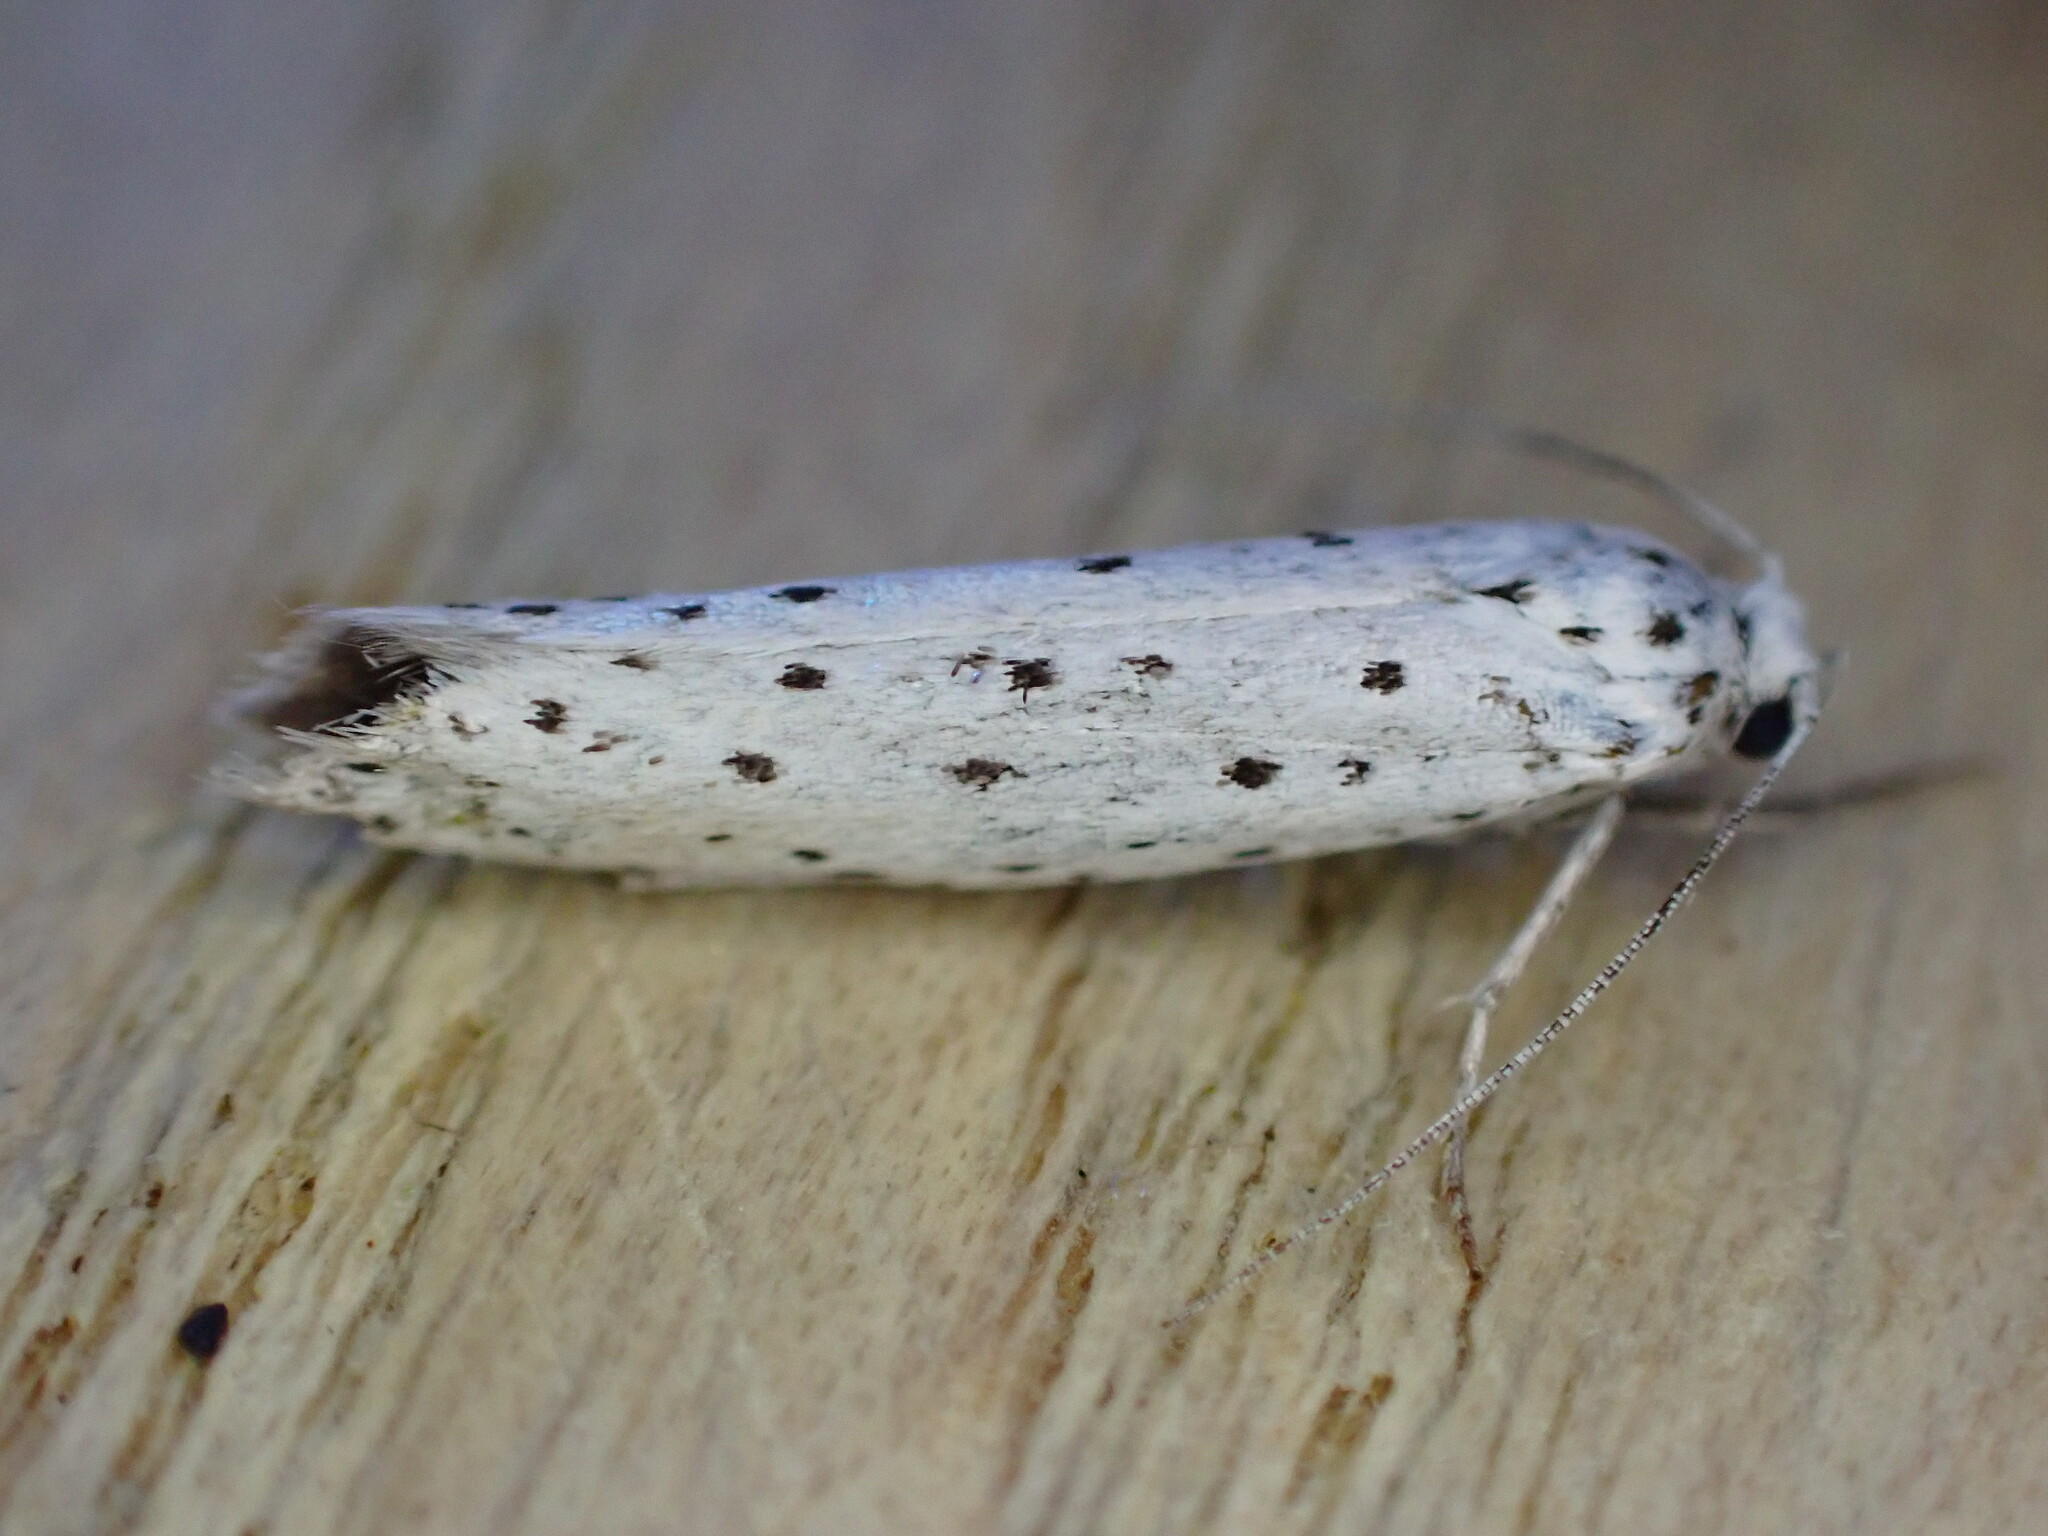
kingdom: Animalia
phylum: Arthropoda
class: Insecta
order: Lepidoptera
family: Yponomeutidae
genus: Yponomeuta
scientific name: Yponomeuta
